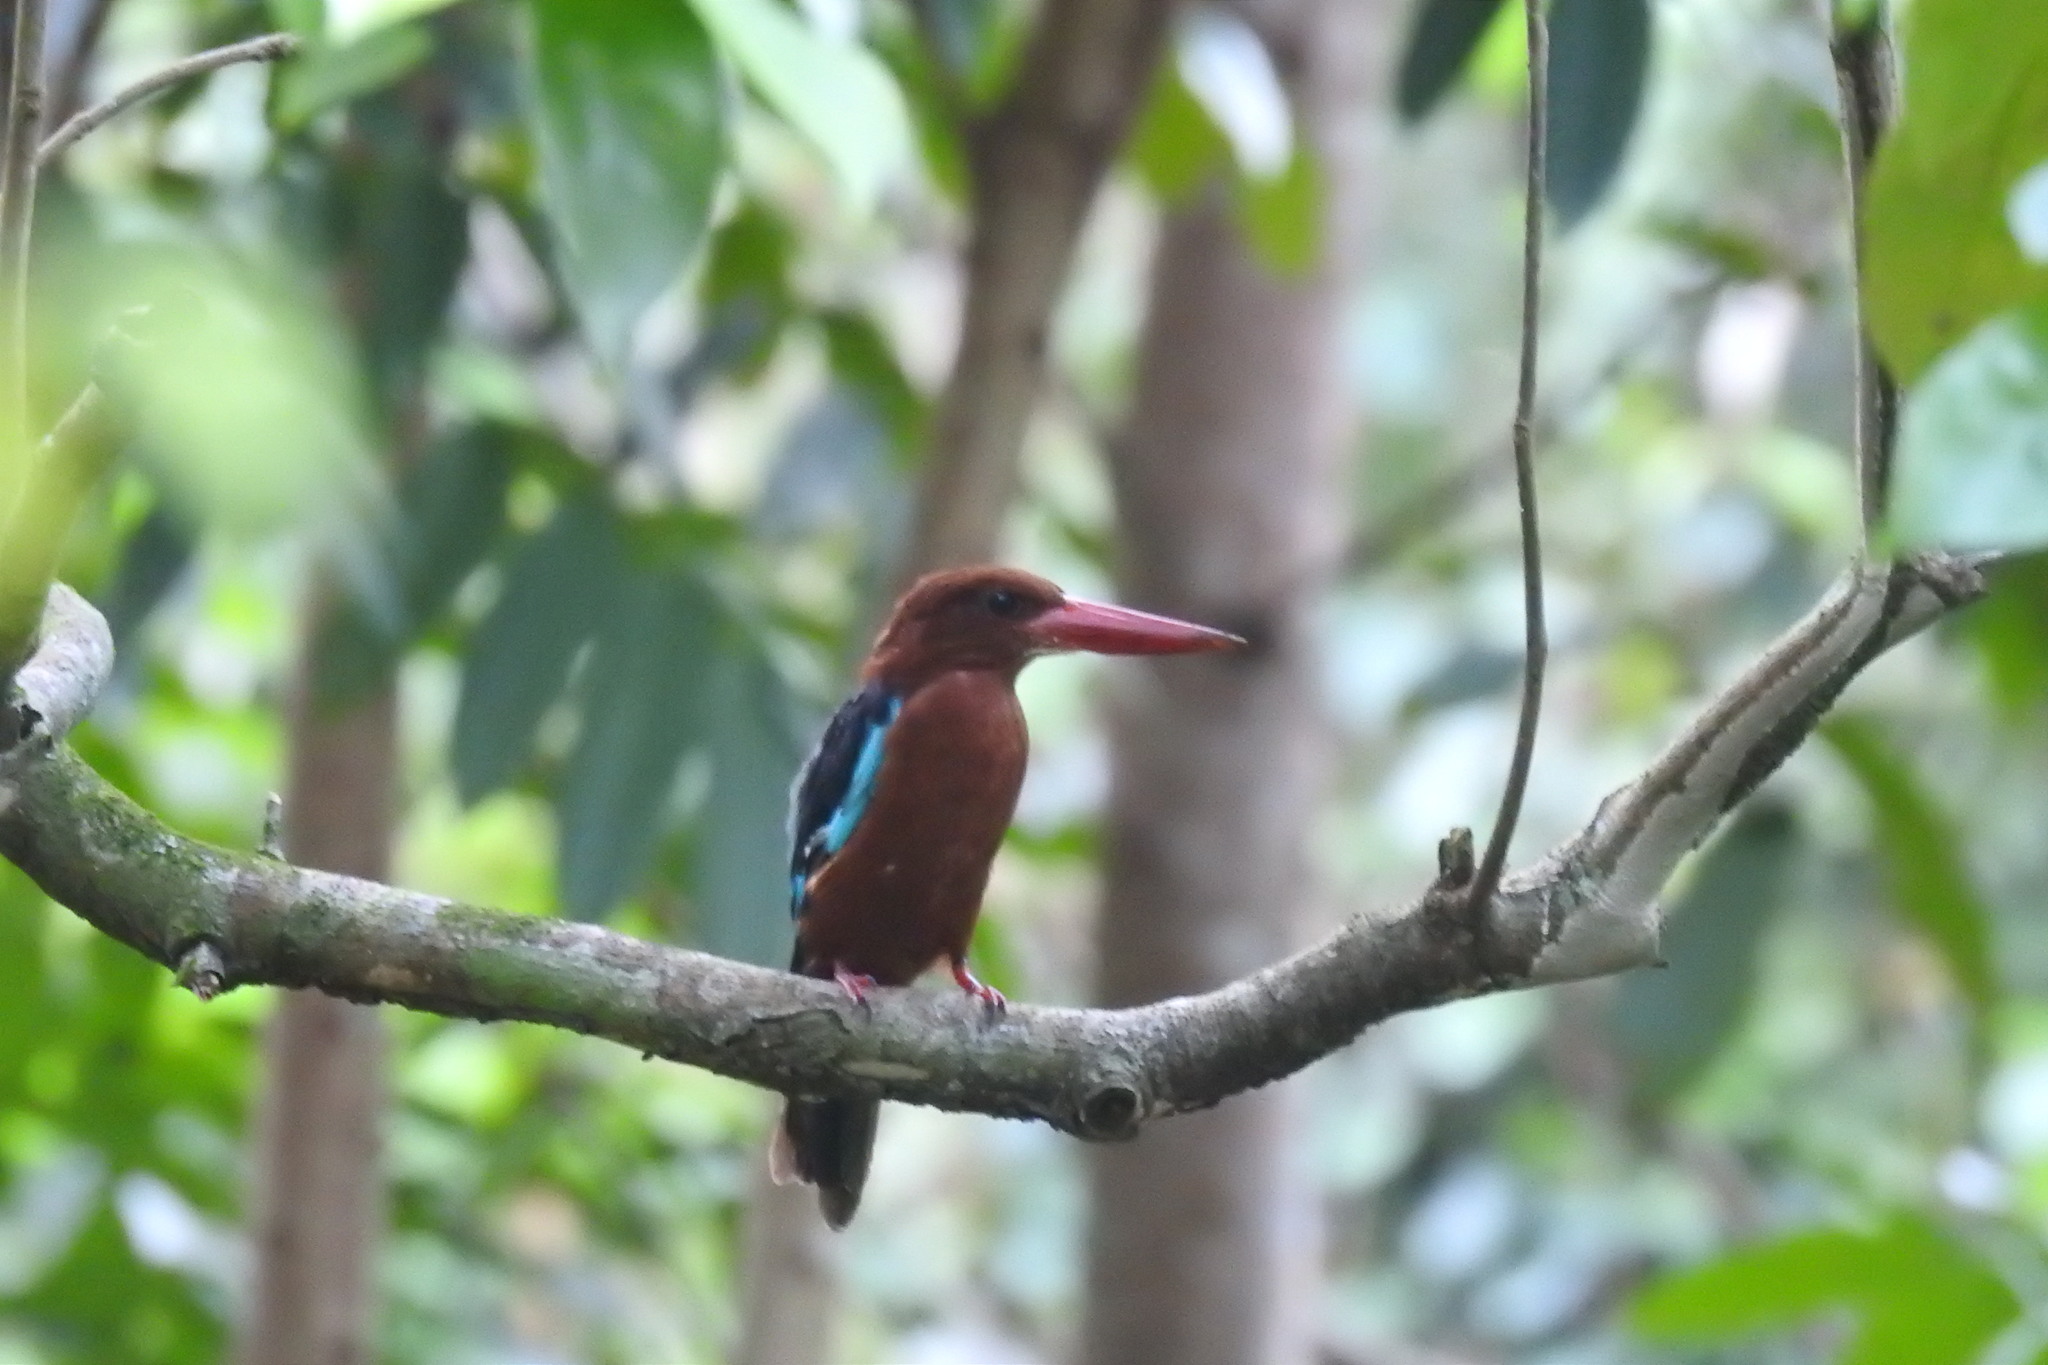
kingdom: Animalia
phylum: Chordata
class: Aves
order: Coraciiformes
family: Alcedinidae
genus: Halcyon
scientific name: Halcyon gularis
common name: Brown-breasted kingfisher
